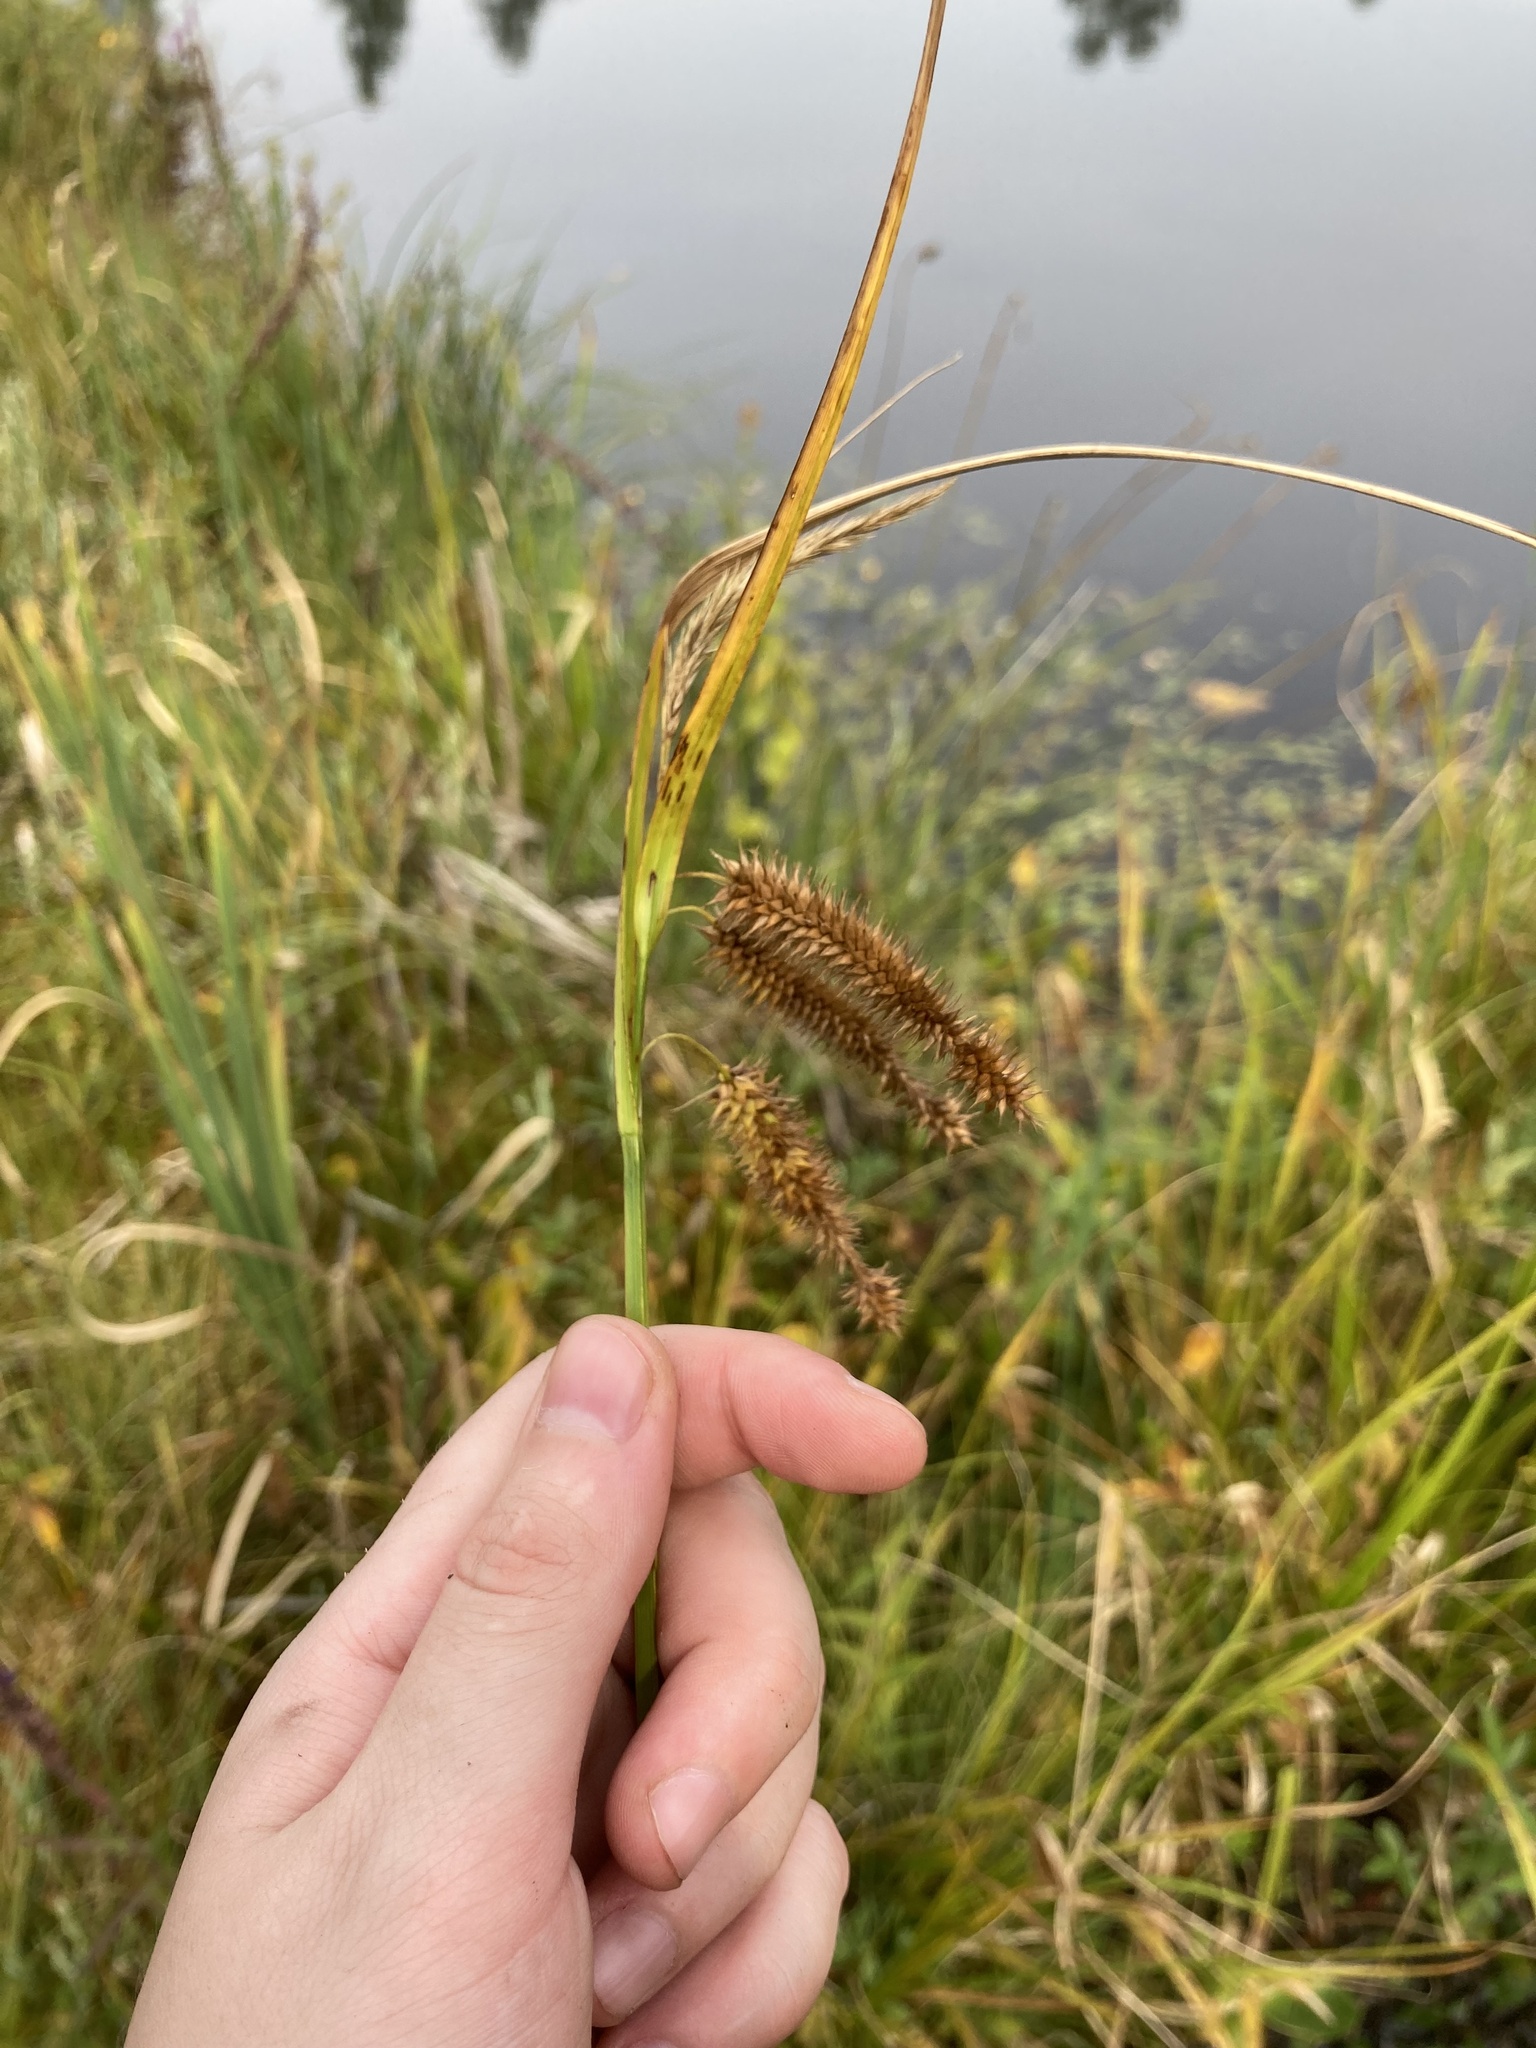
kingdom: Plantae
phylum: Tracheophyta
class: Liliopsida
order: Poales
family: Cyperaceae
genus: Carex
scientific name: Carex pseudocyperus
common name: Cyperus sedge
